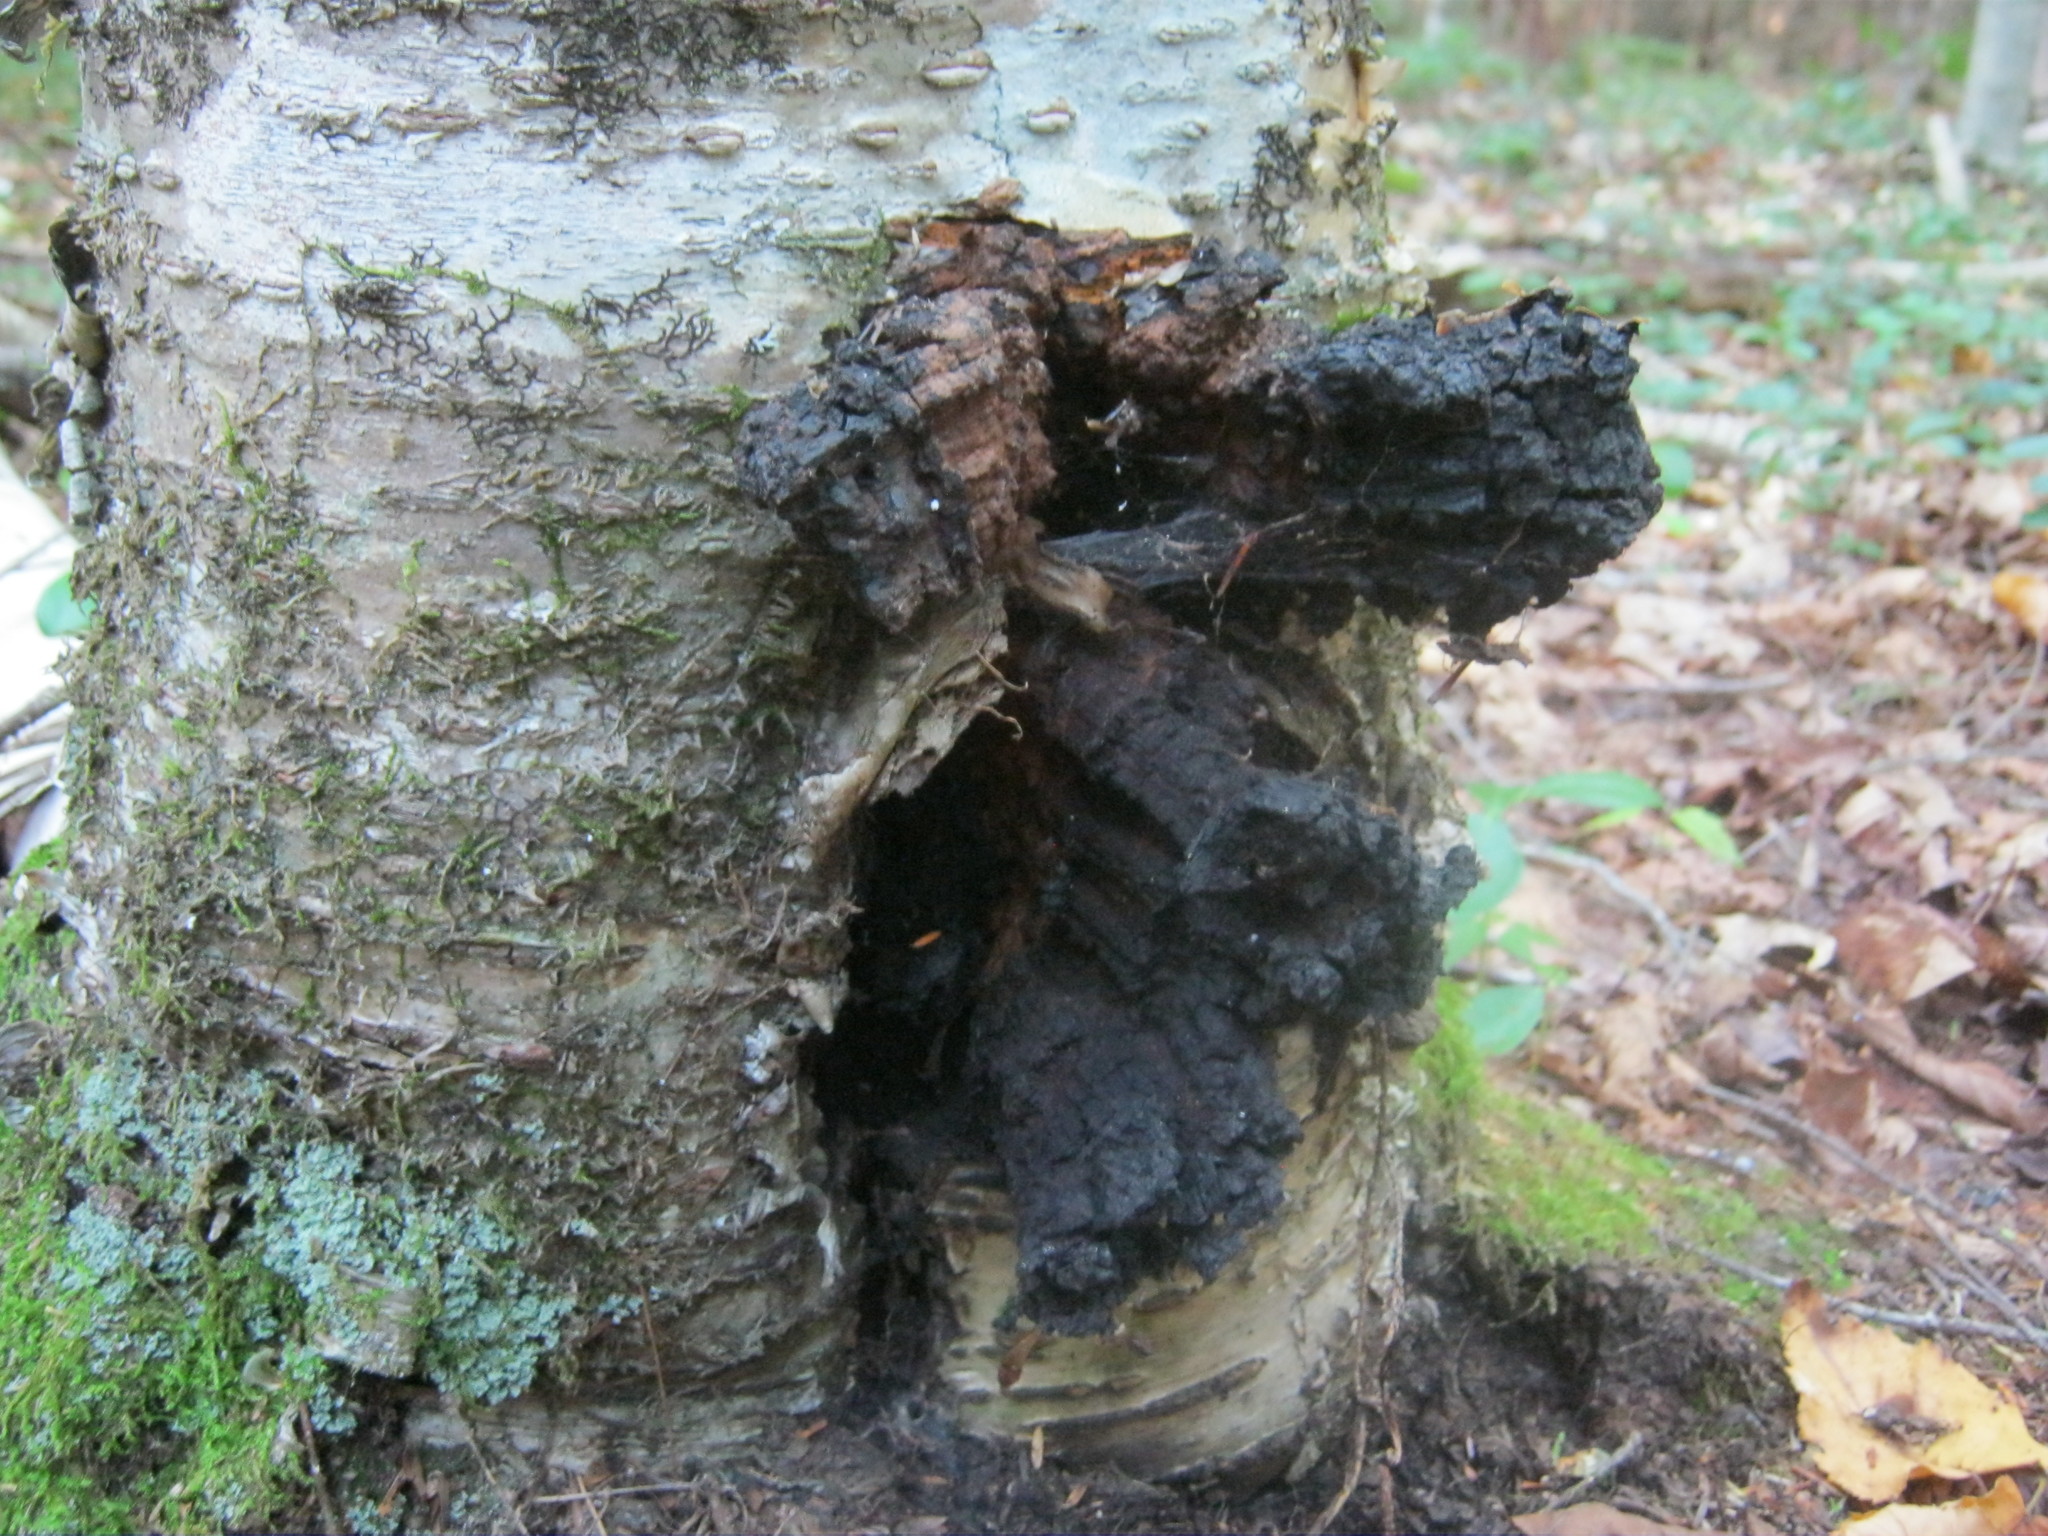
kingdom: Fungi
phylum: Basidiomycota
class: Agaricomycetes
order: Hymenochaetales
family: Hymenochaetaceae
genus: Inonotus
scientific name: Inonotus obliquus
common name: Chaga
